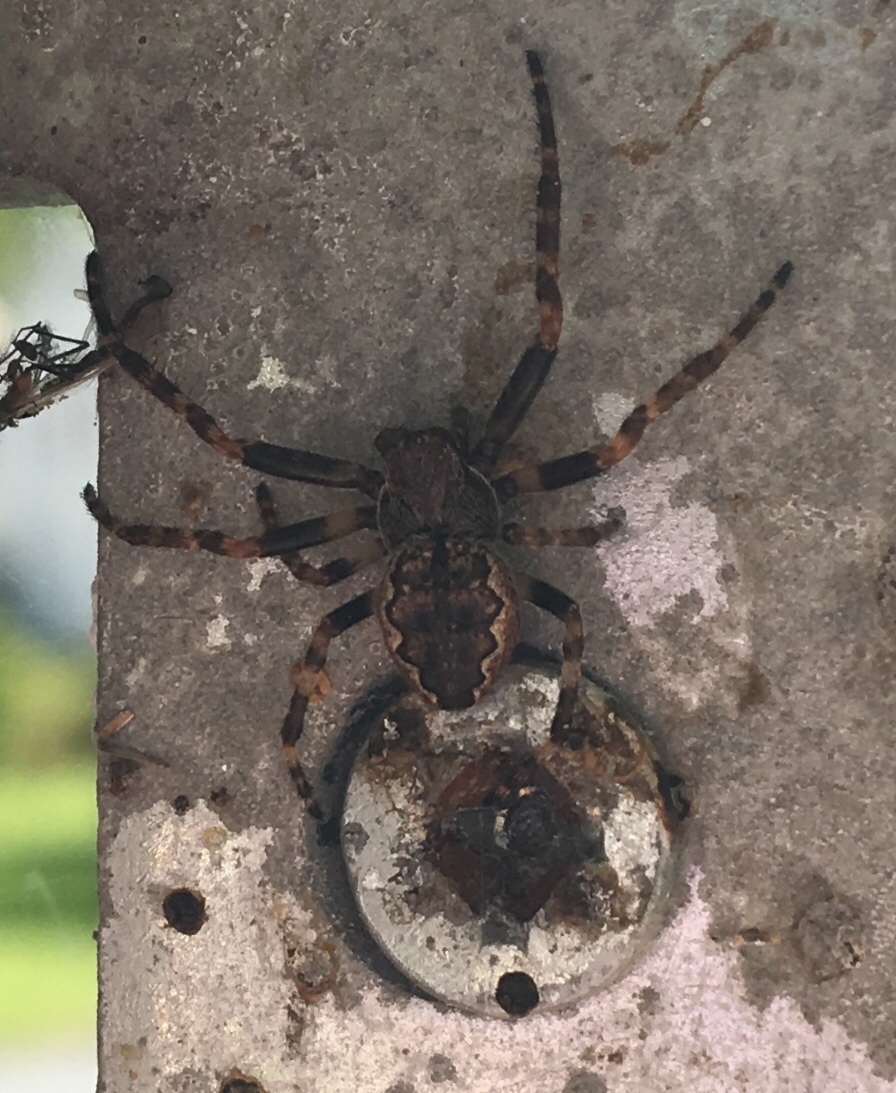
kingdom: Animalia
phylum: Arthropoda
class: Arachnida
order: Araneae
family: Araneidae
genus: Nuctenea
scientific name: Nuctenea umbratica
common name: Toad spider
